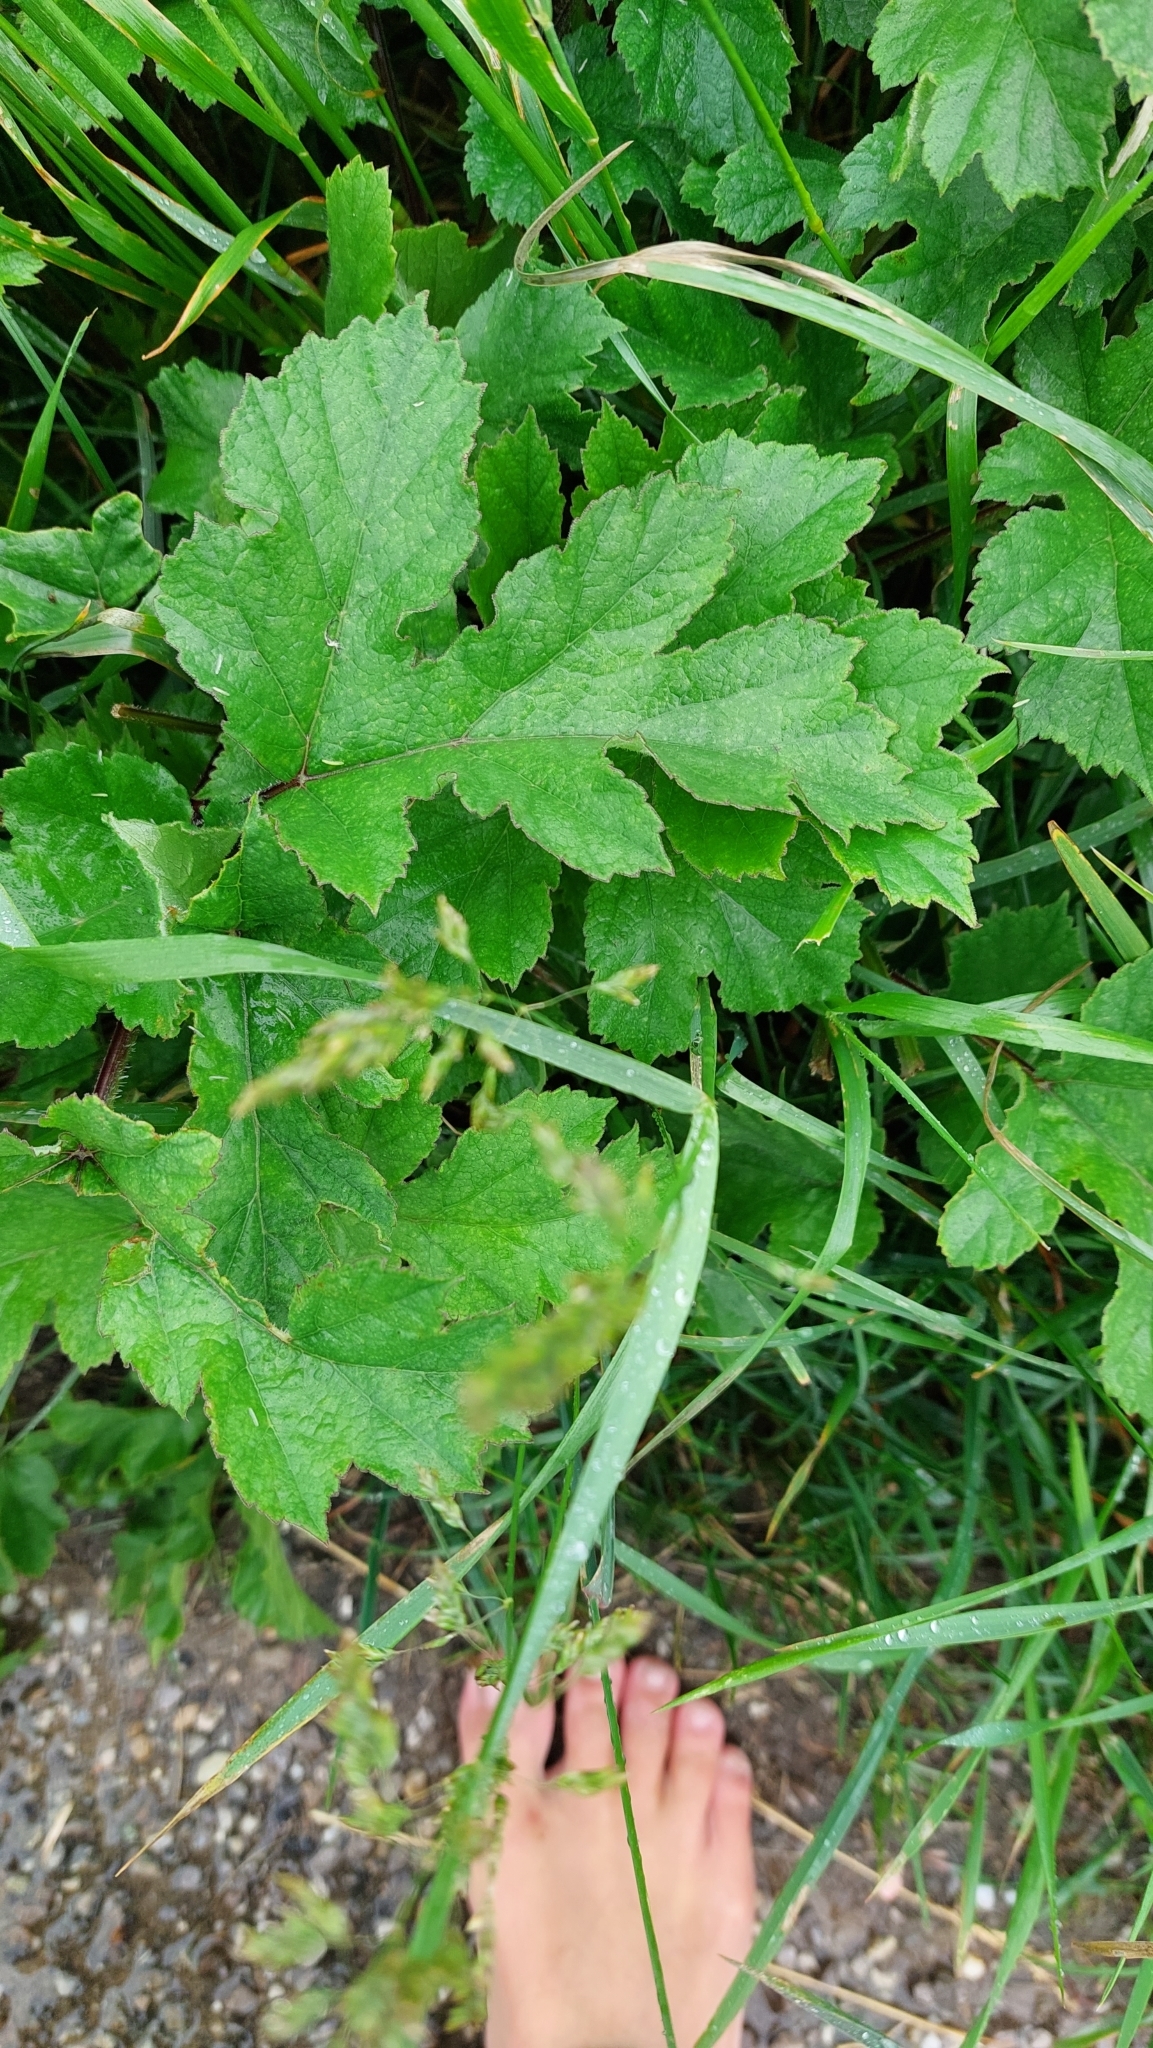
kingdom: Plantae
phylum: Tracheophyta
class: Magnoliopsida
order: Apiales
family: Apiaceae
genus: Heracleum
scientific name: Heracleum sphondylium
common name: Hogweed
